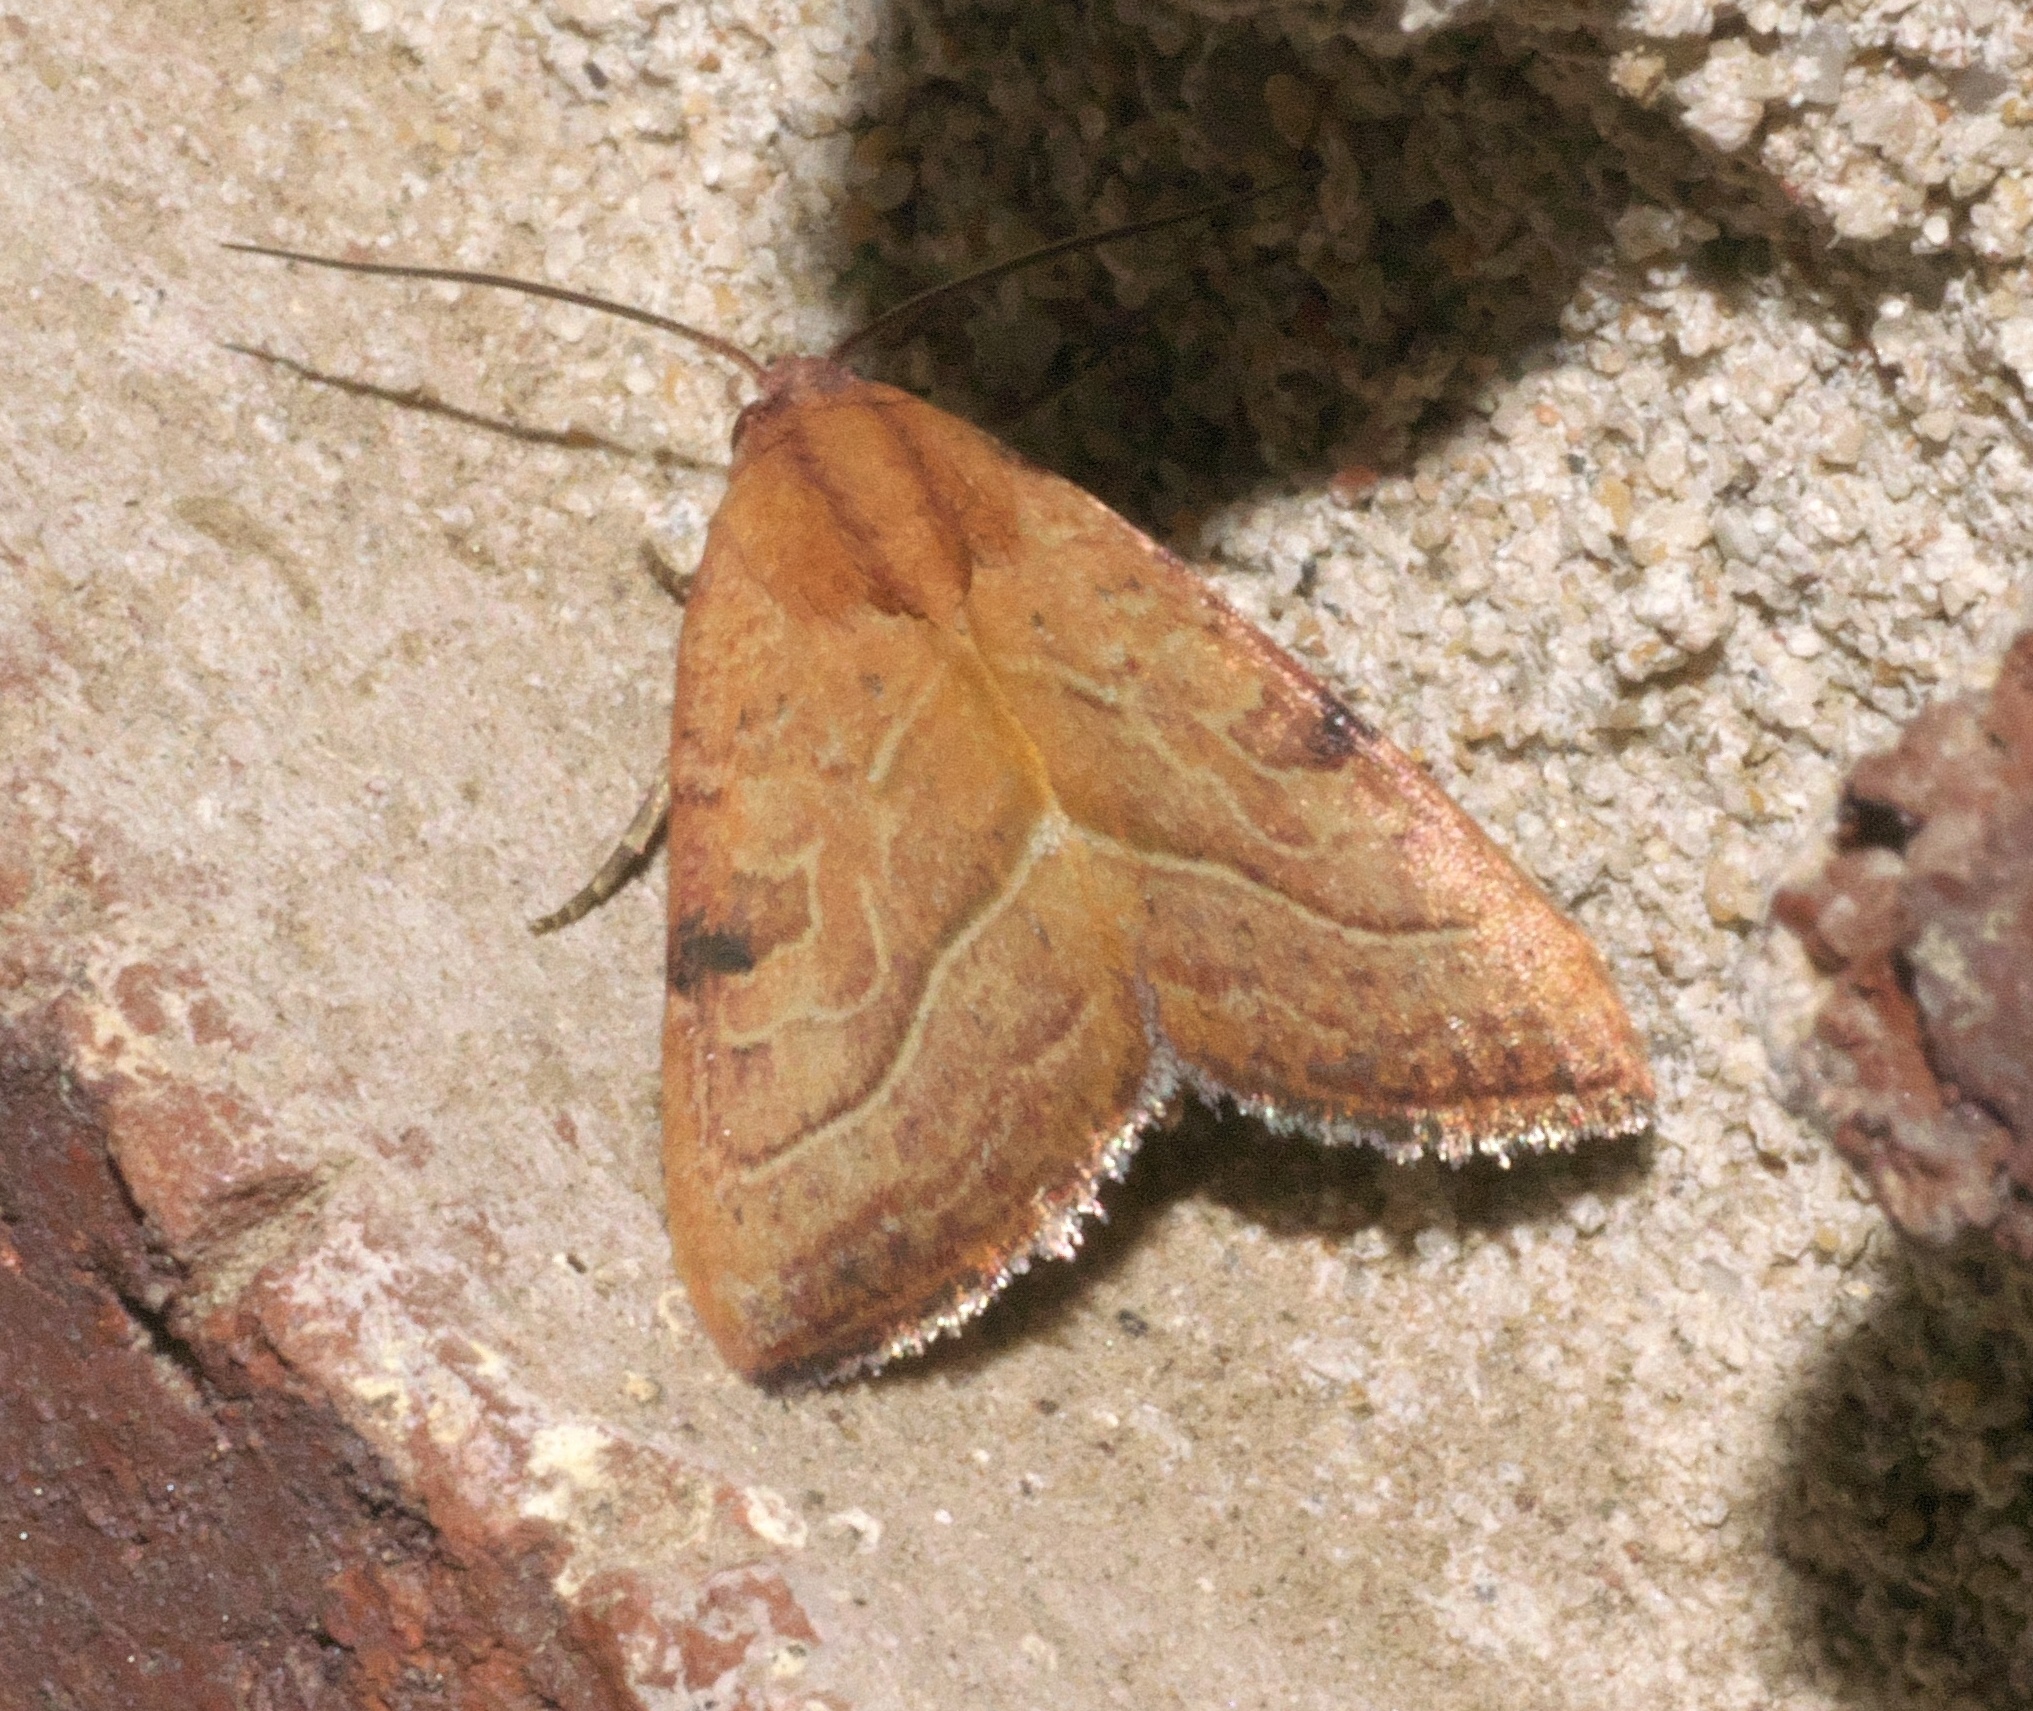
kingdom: Animalia
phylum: Arthropoda
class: Insecta
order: Lepidoptera
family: Noctuidae
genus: Galgula
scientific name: Galgula partita
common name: Wedgeling
